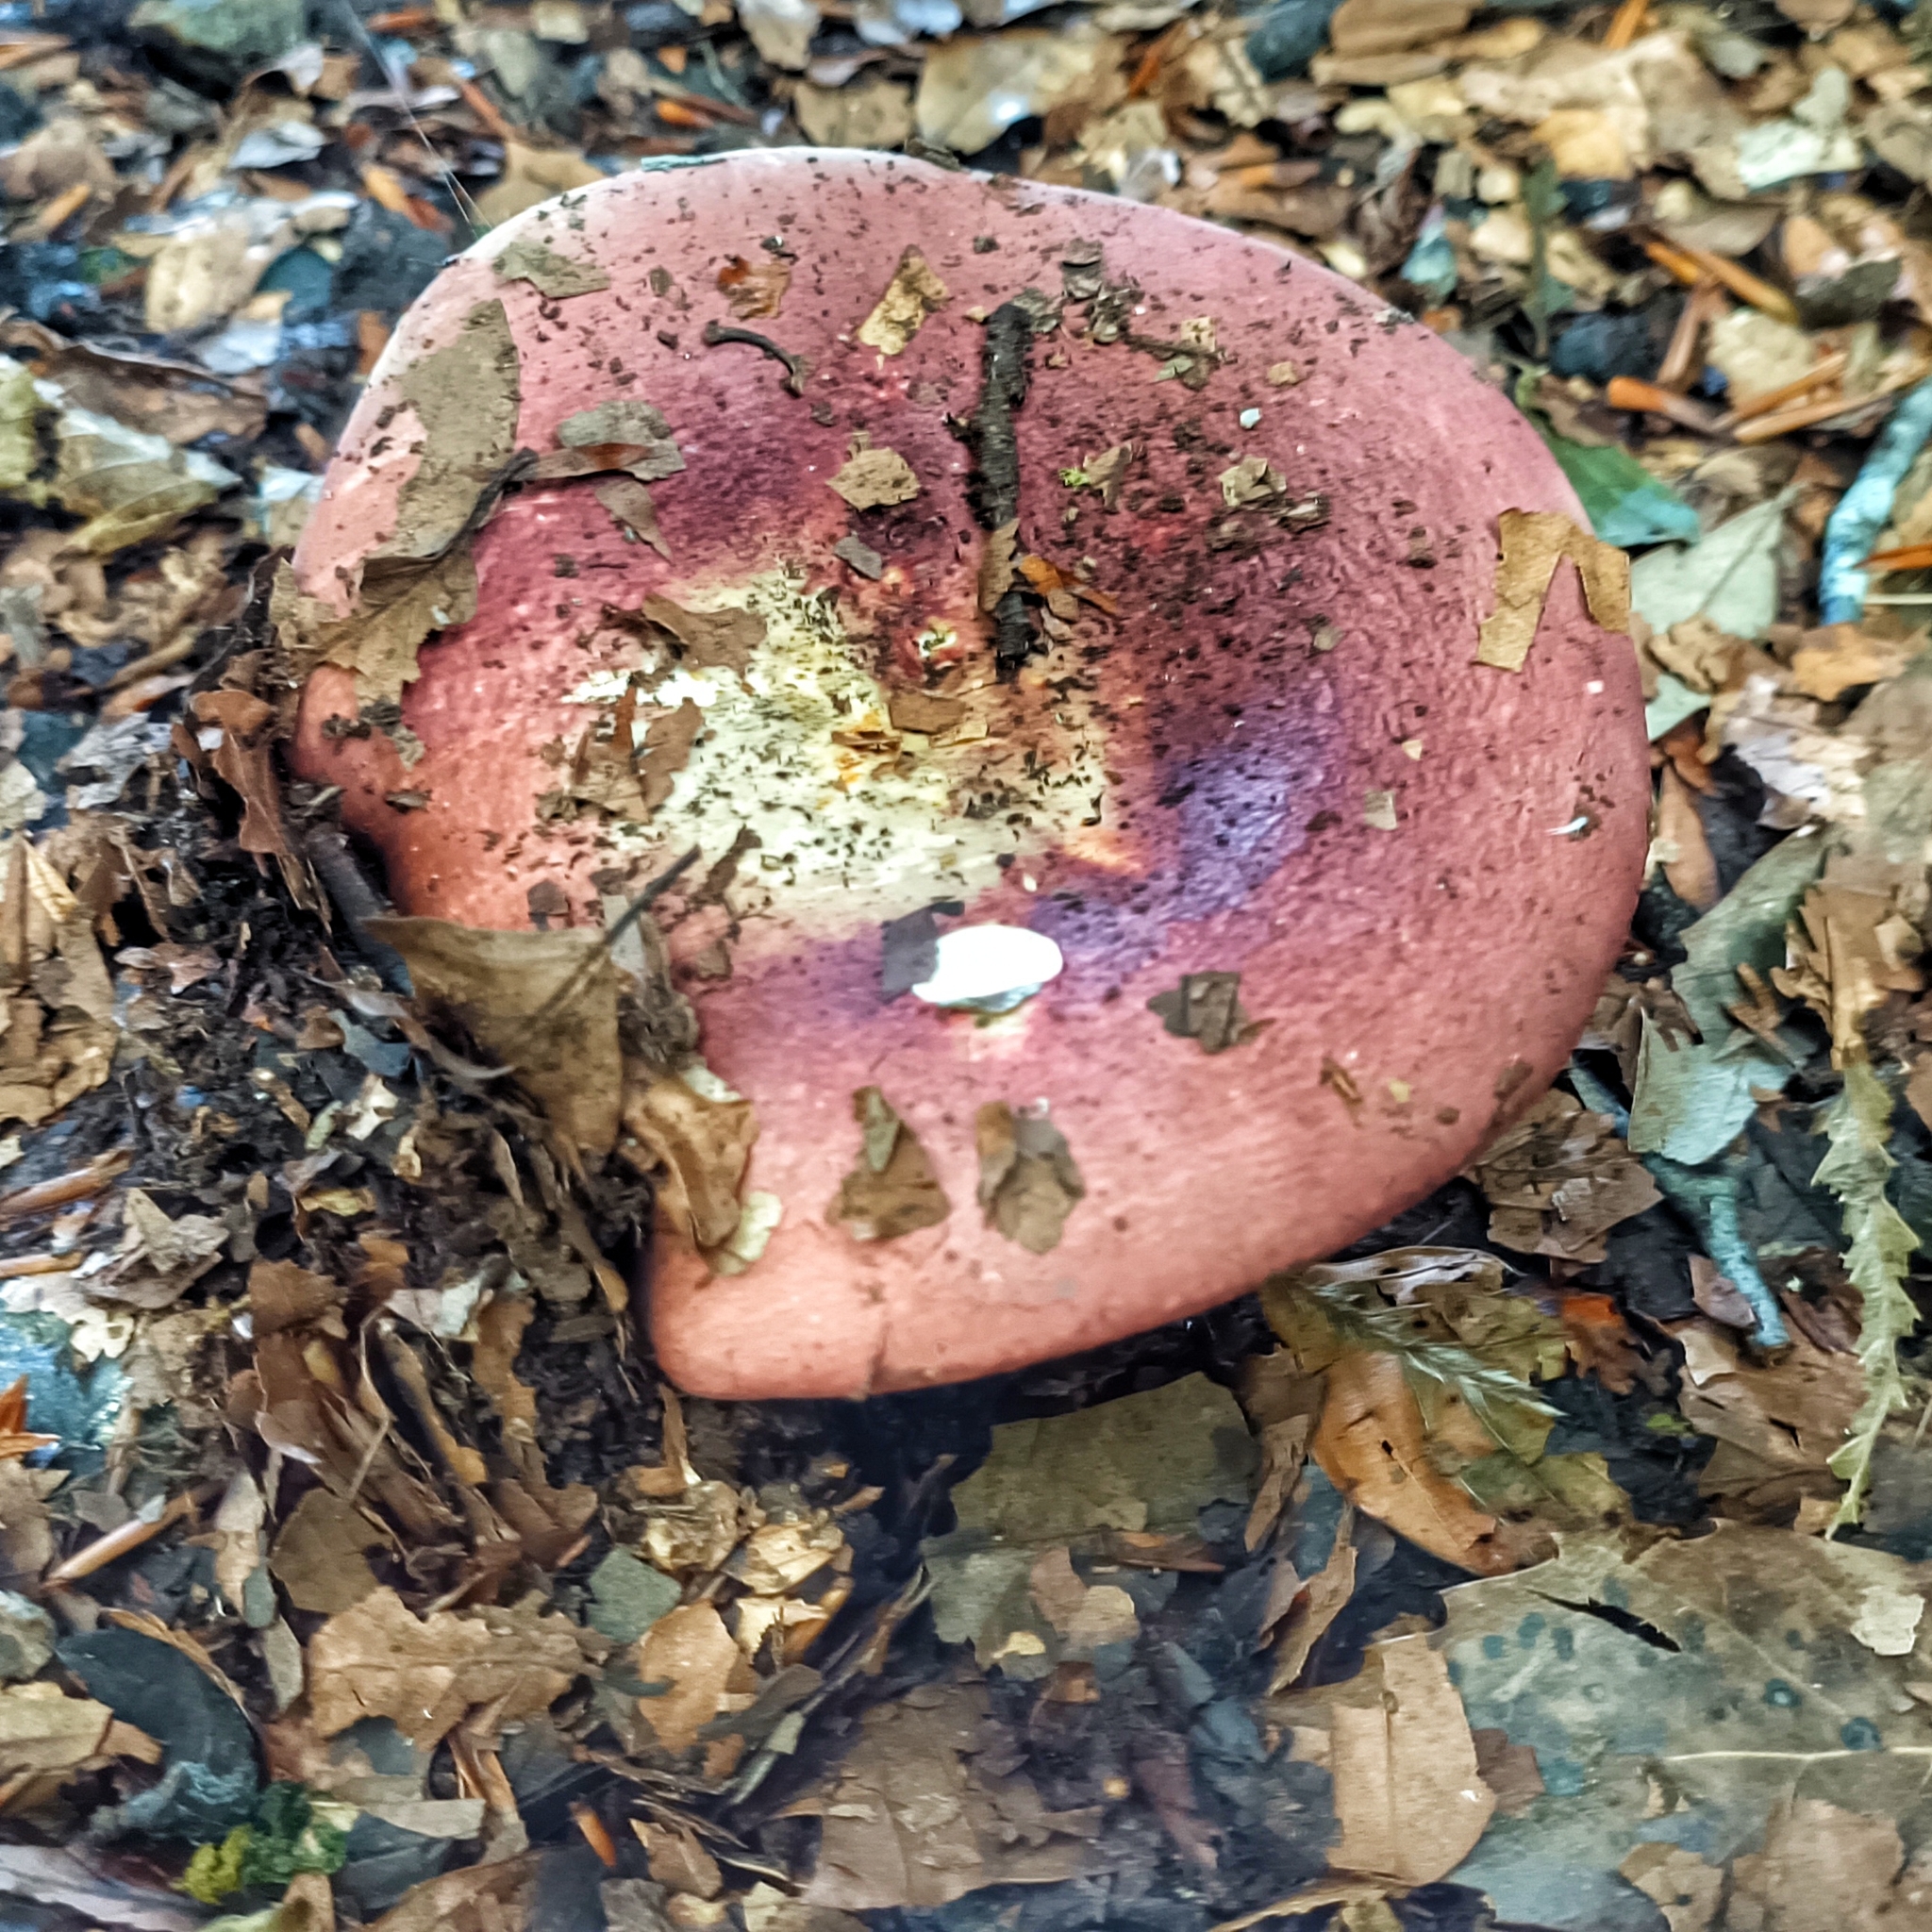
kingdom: Fungi
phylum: Basidiomycota
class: Agaricomycetes
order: Russulales
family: Russulaceae
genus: Russula
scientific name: Russula olivacea
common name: Olive brittlegill
